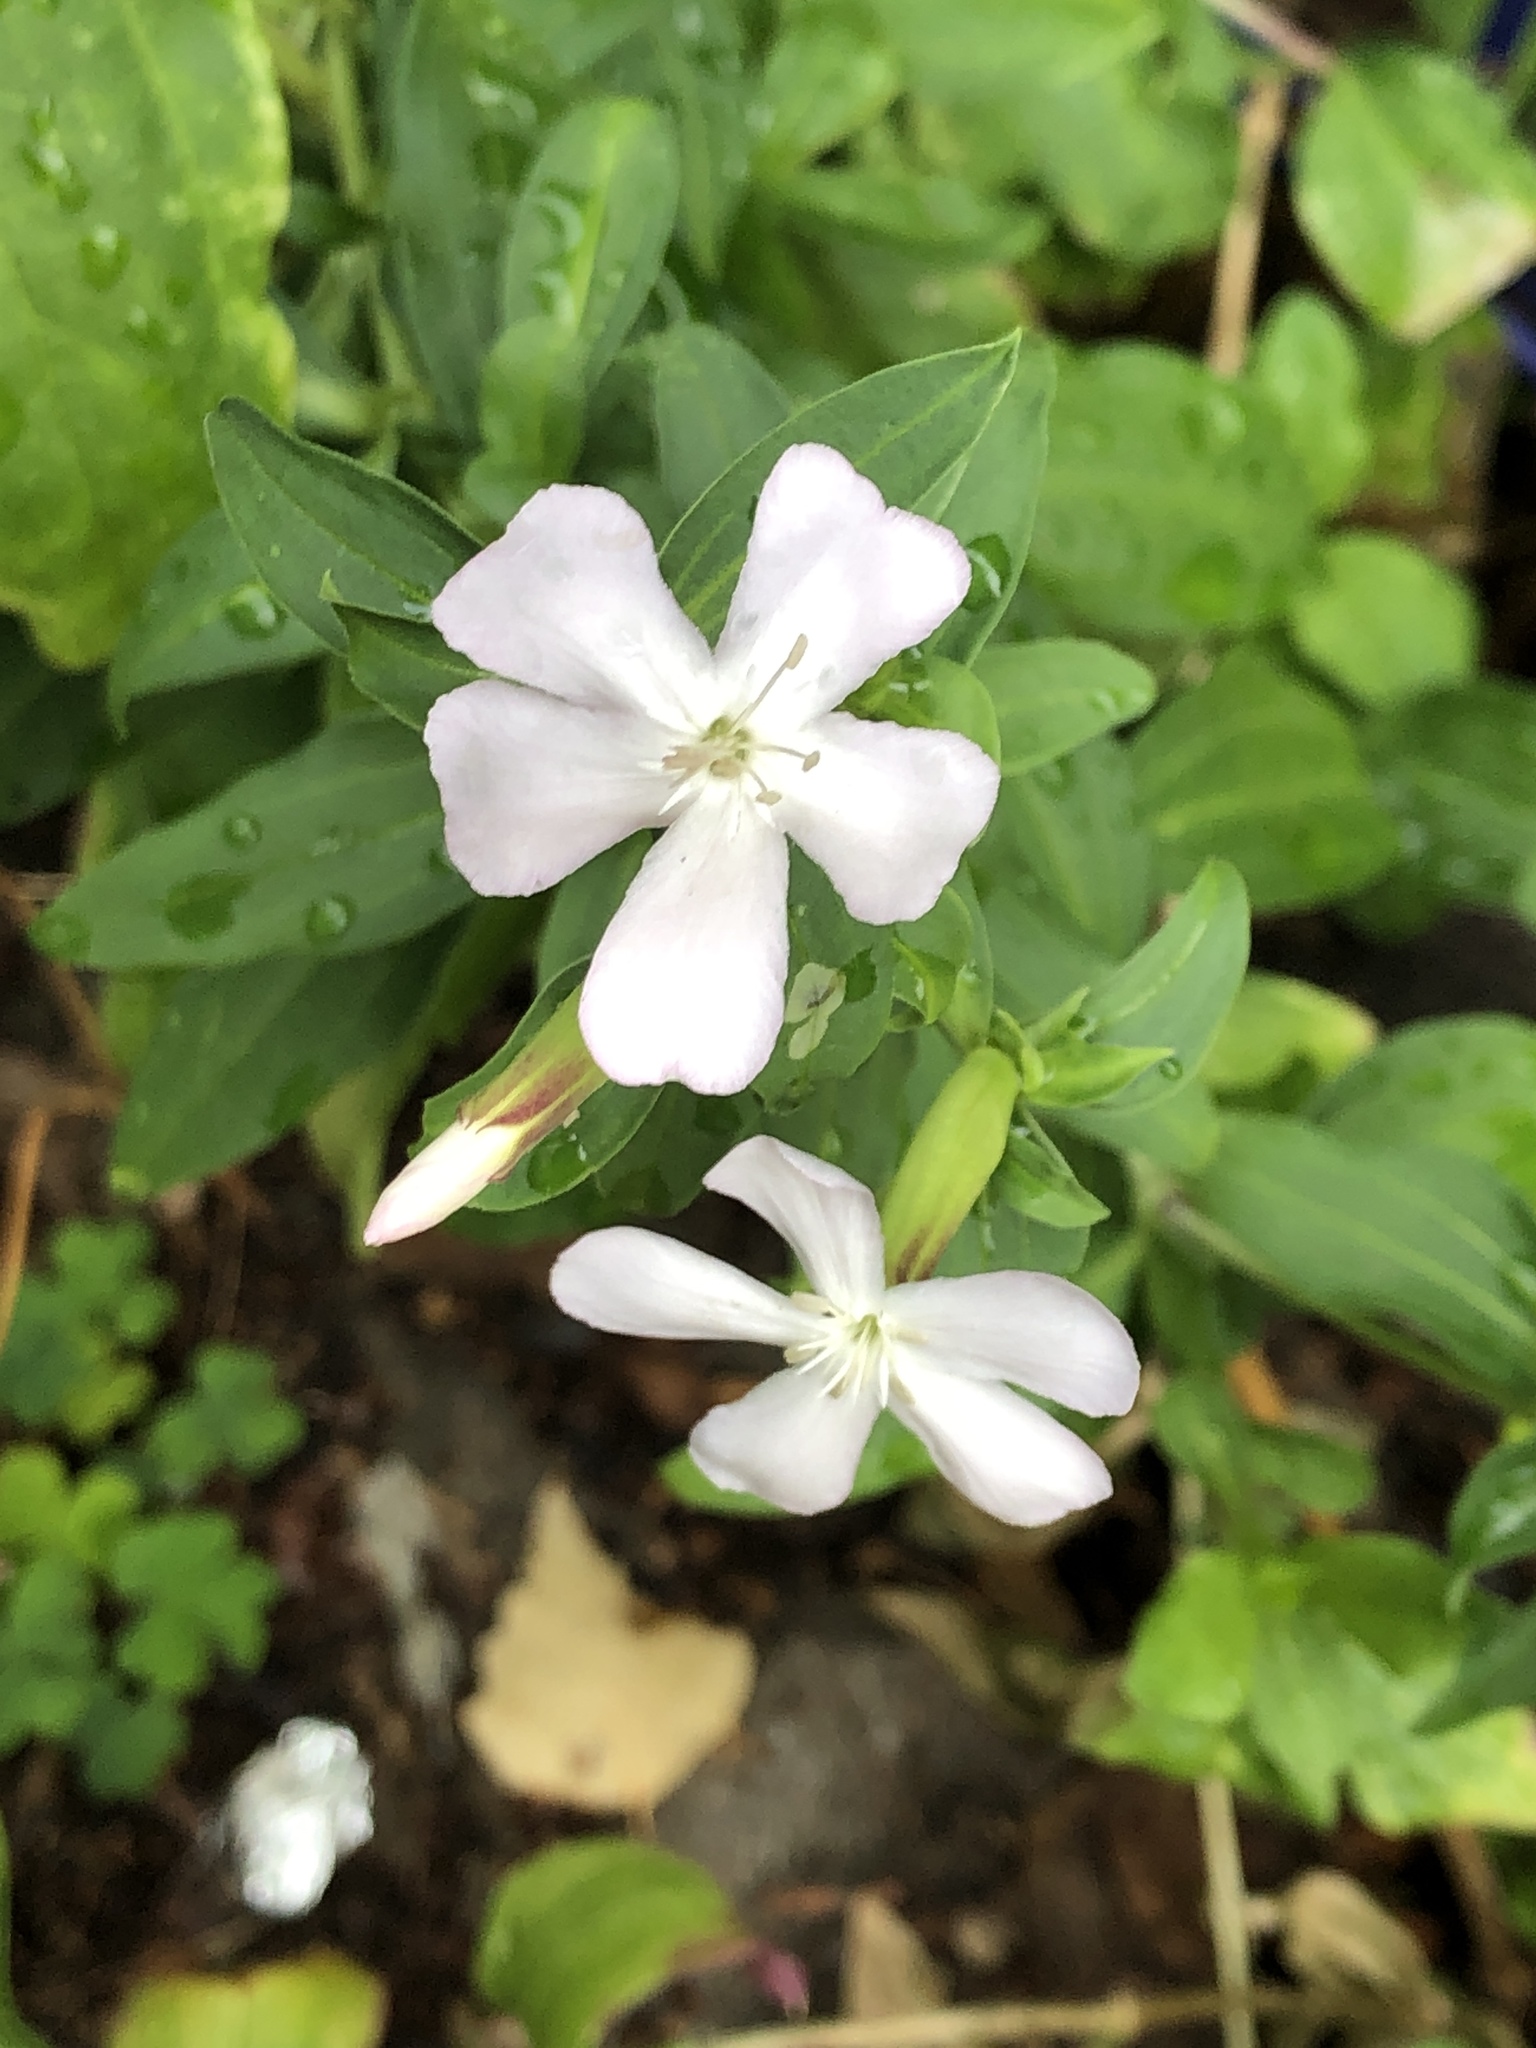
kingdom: Plantae
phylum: Tracheophyta
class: Magnoliopsida
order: Caryophyllales
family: Caryophyllaceae
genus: Saponaria
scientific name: Saponaria officinalis
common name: Soapwort
